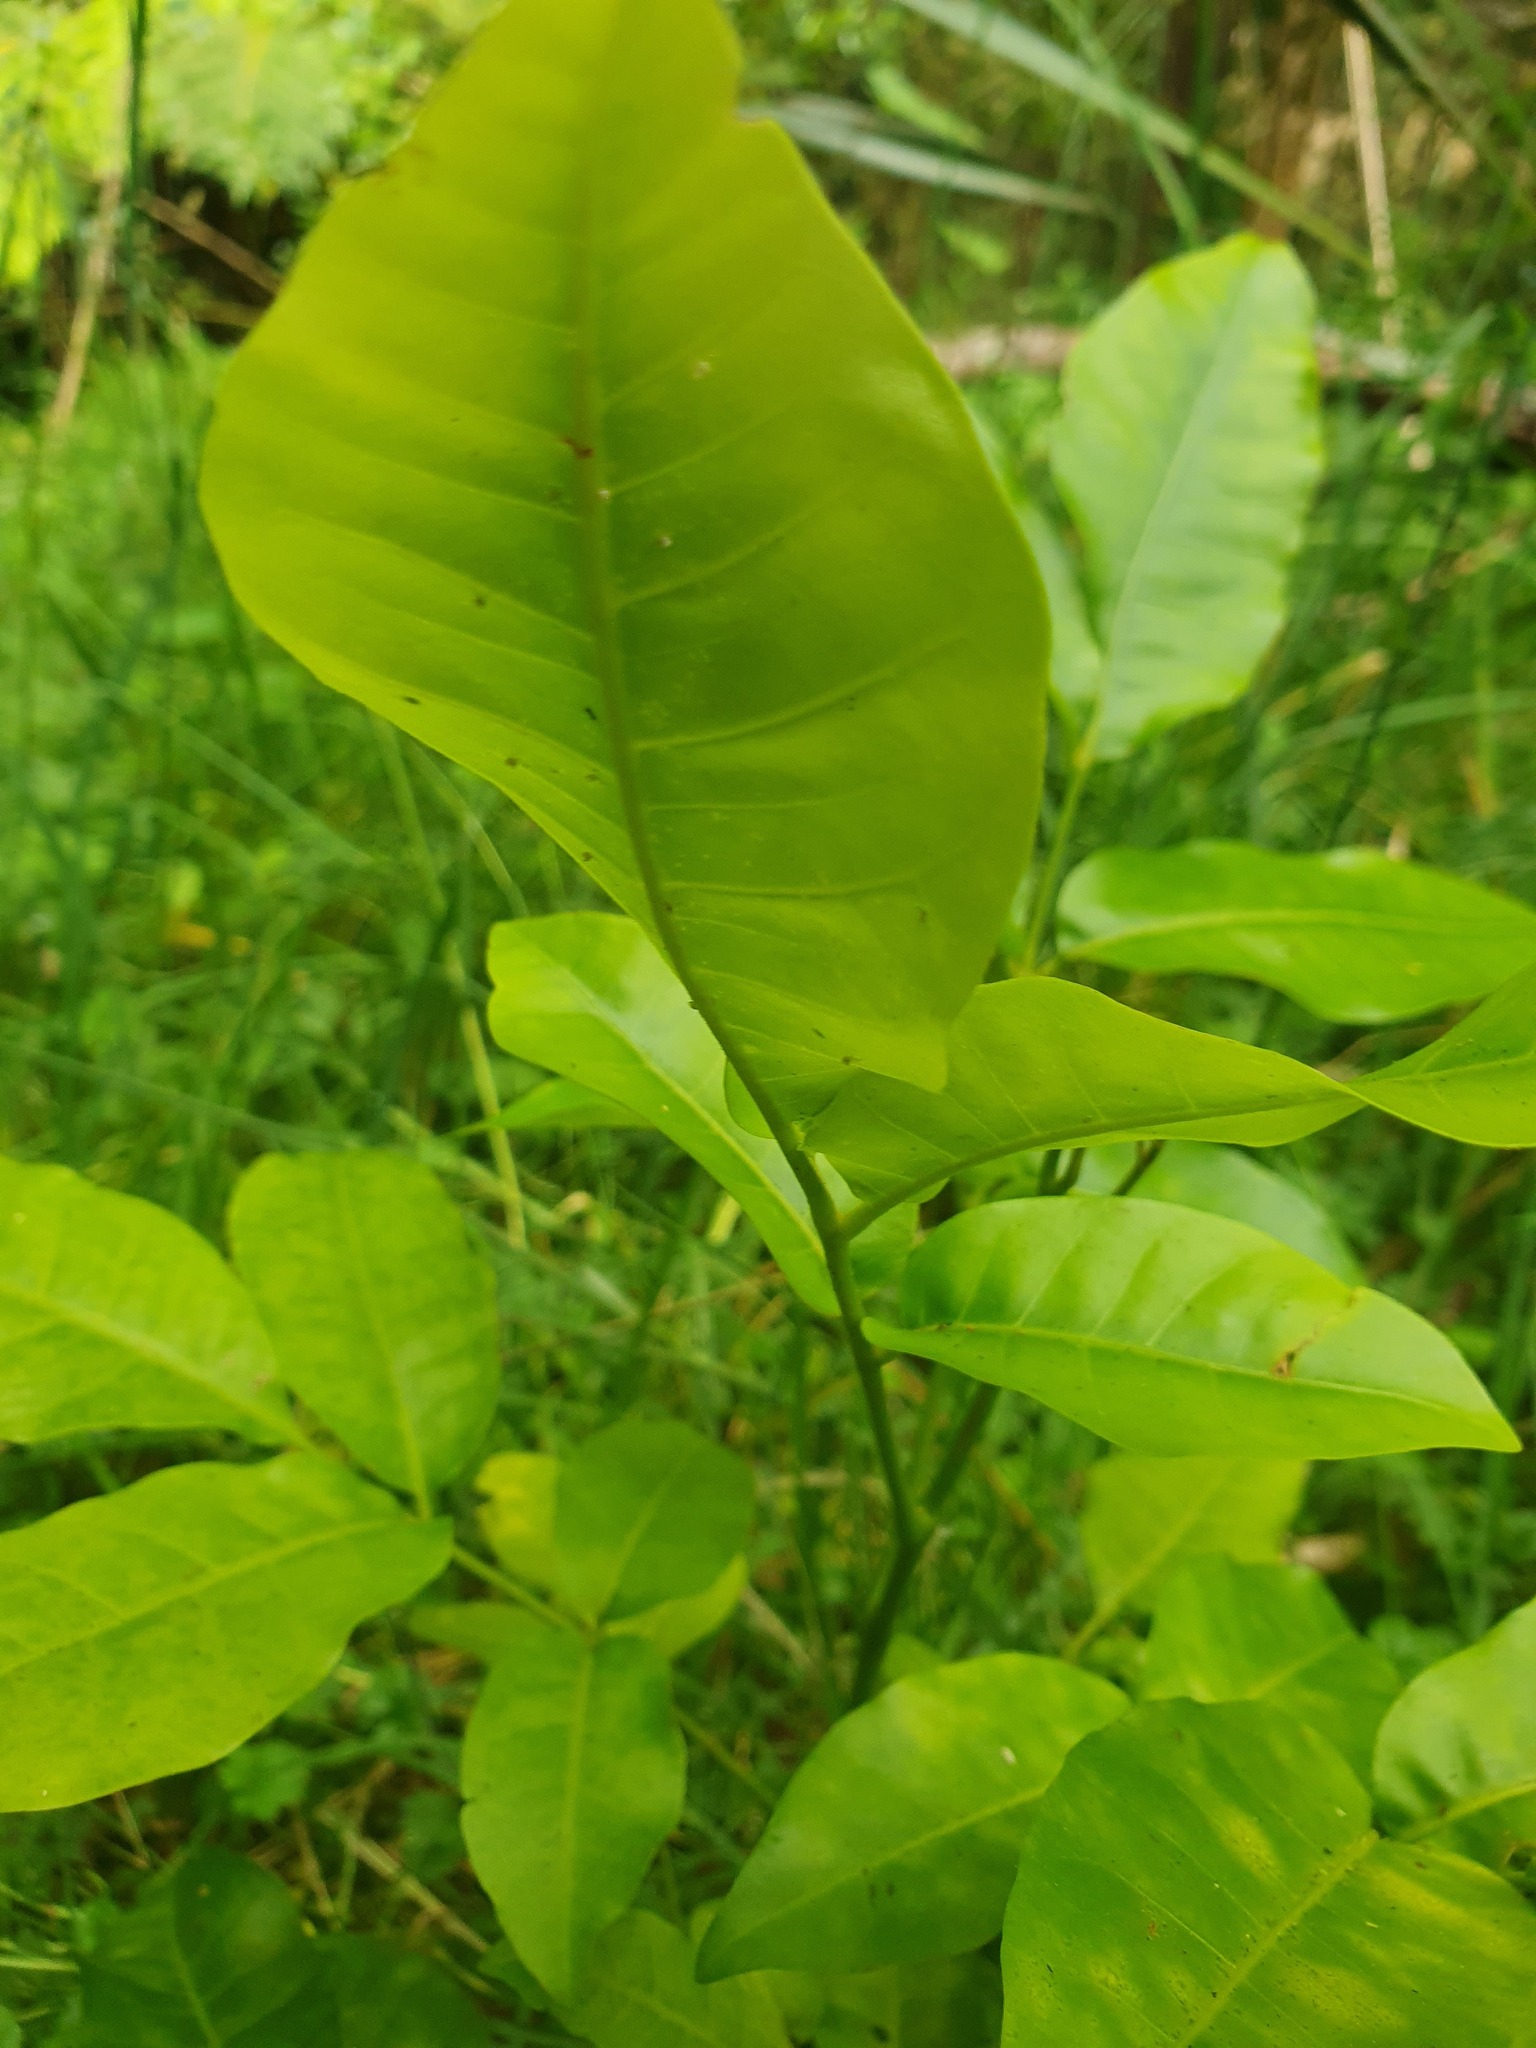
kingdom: Plantae
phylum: Tracheophyta
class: Magnoliopsida
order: Sapindales
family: Meliaceae
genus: Didymocheton
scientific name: Didymocheton spectabilis
